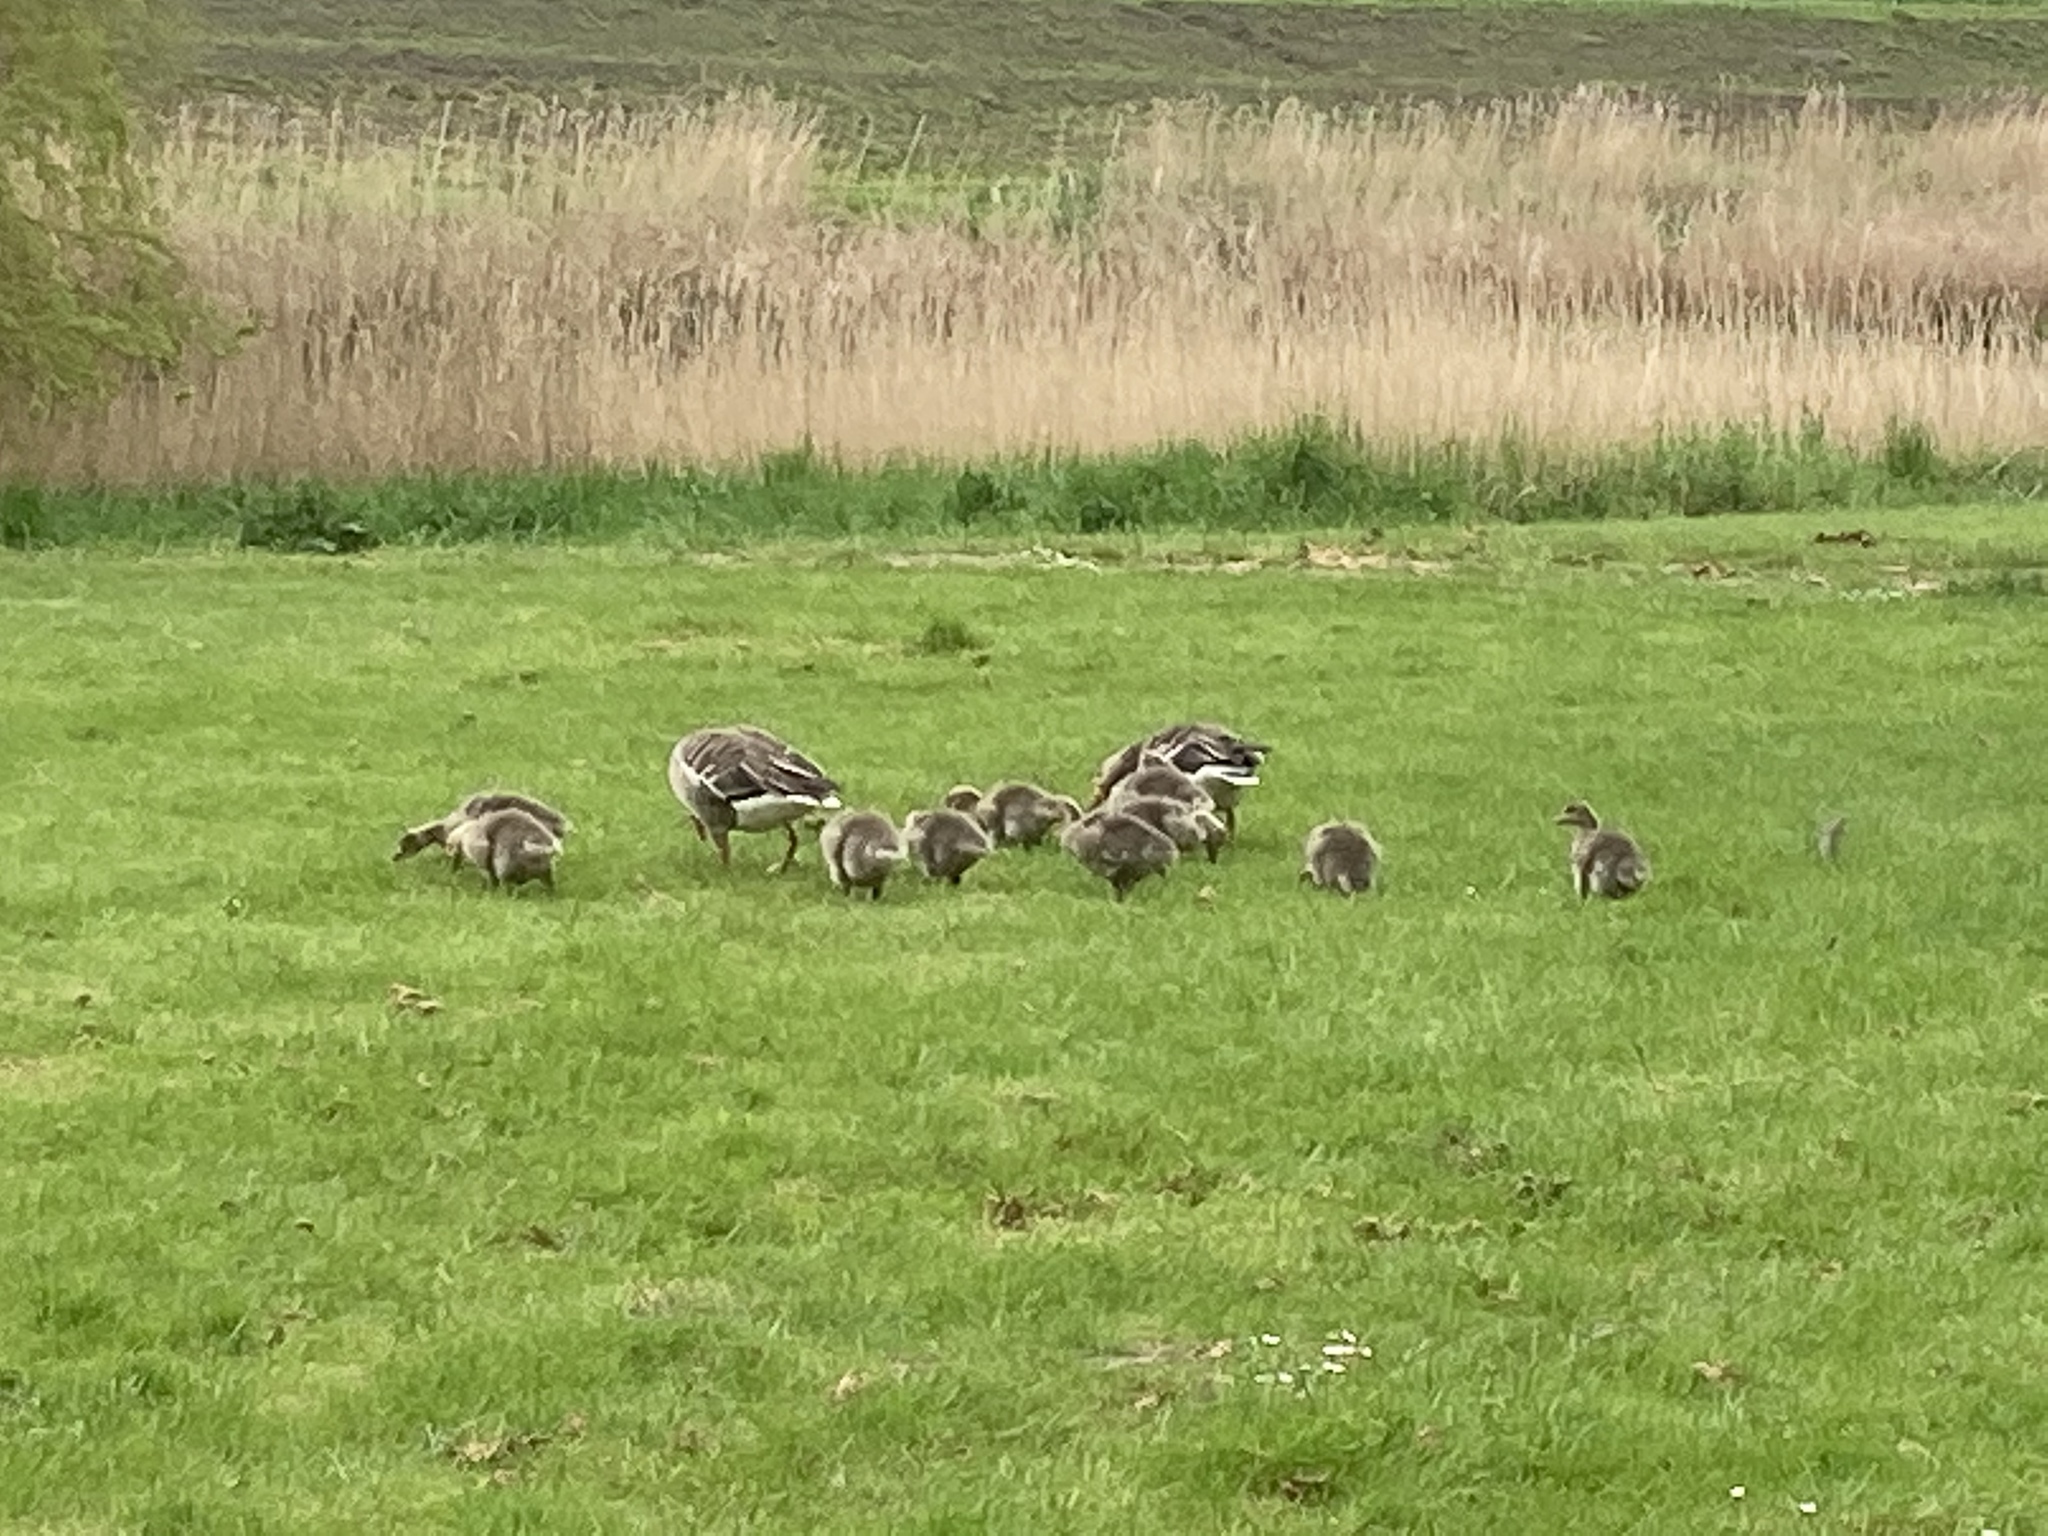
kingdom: Animalia
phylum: Chordata
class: Aves
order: Anseriformes
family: Anatidae
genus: Anser
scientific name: Anser anser
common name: Greylag goose
